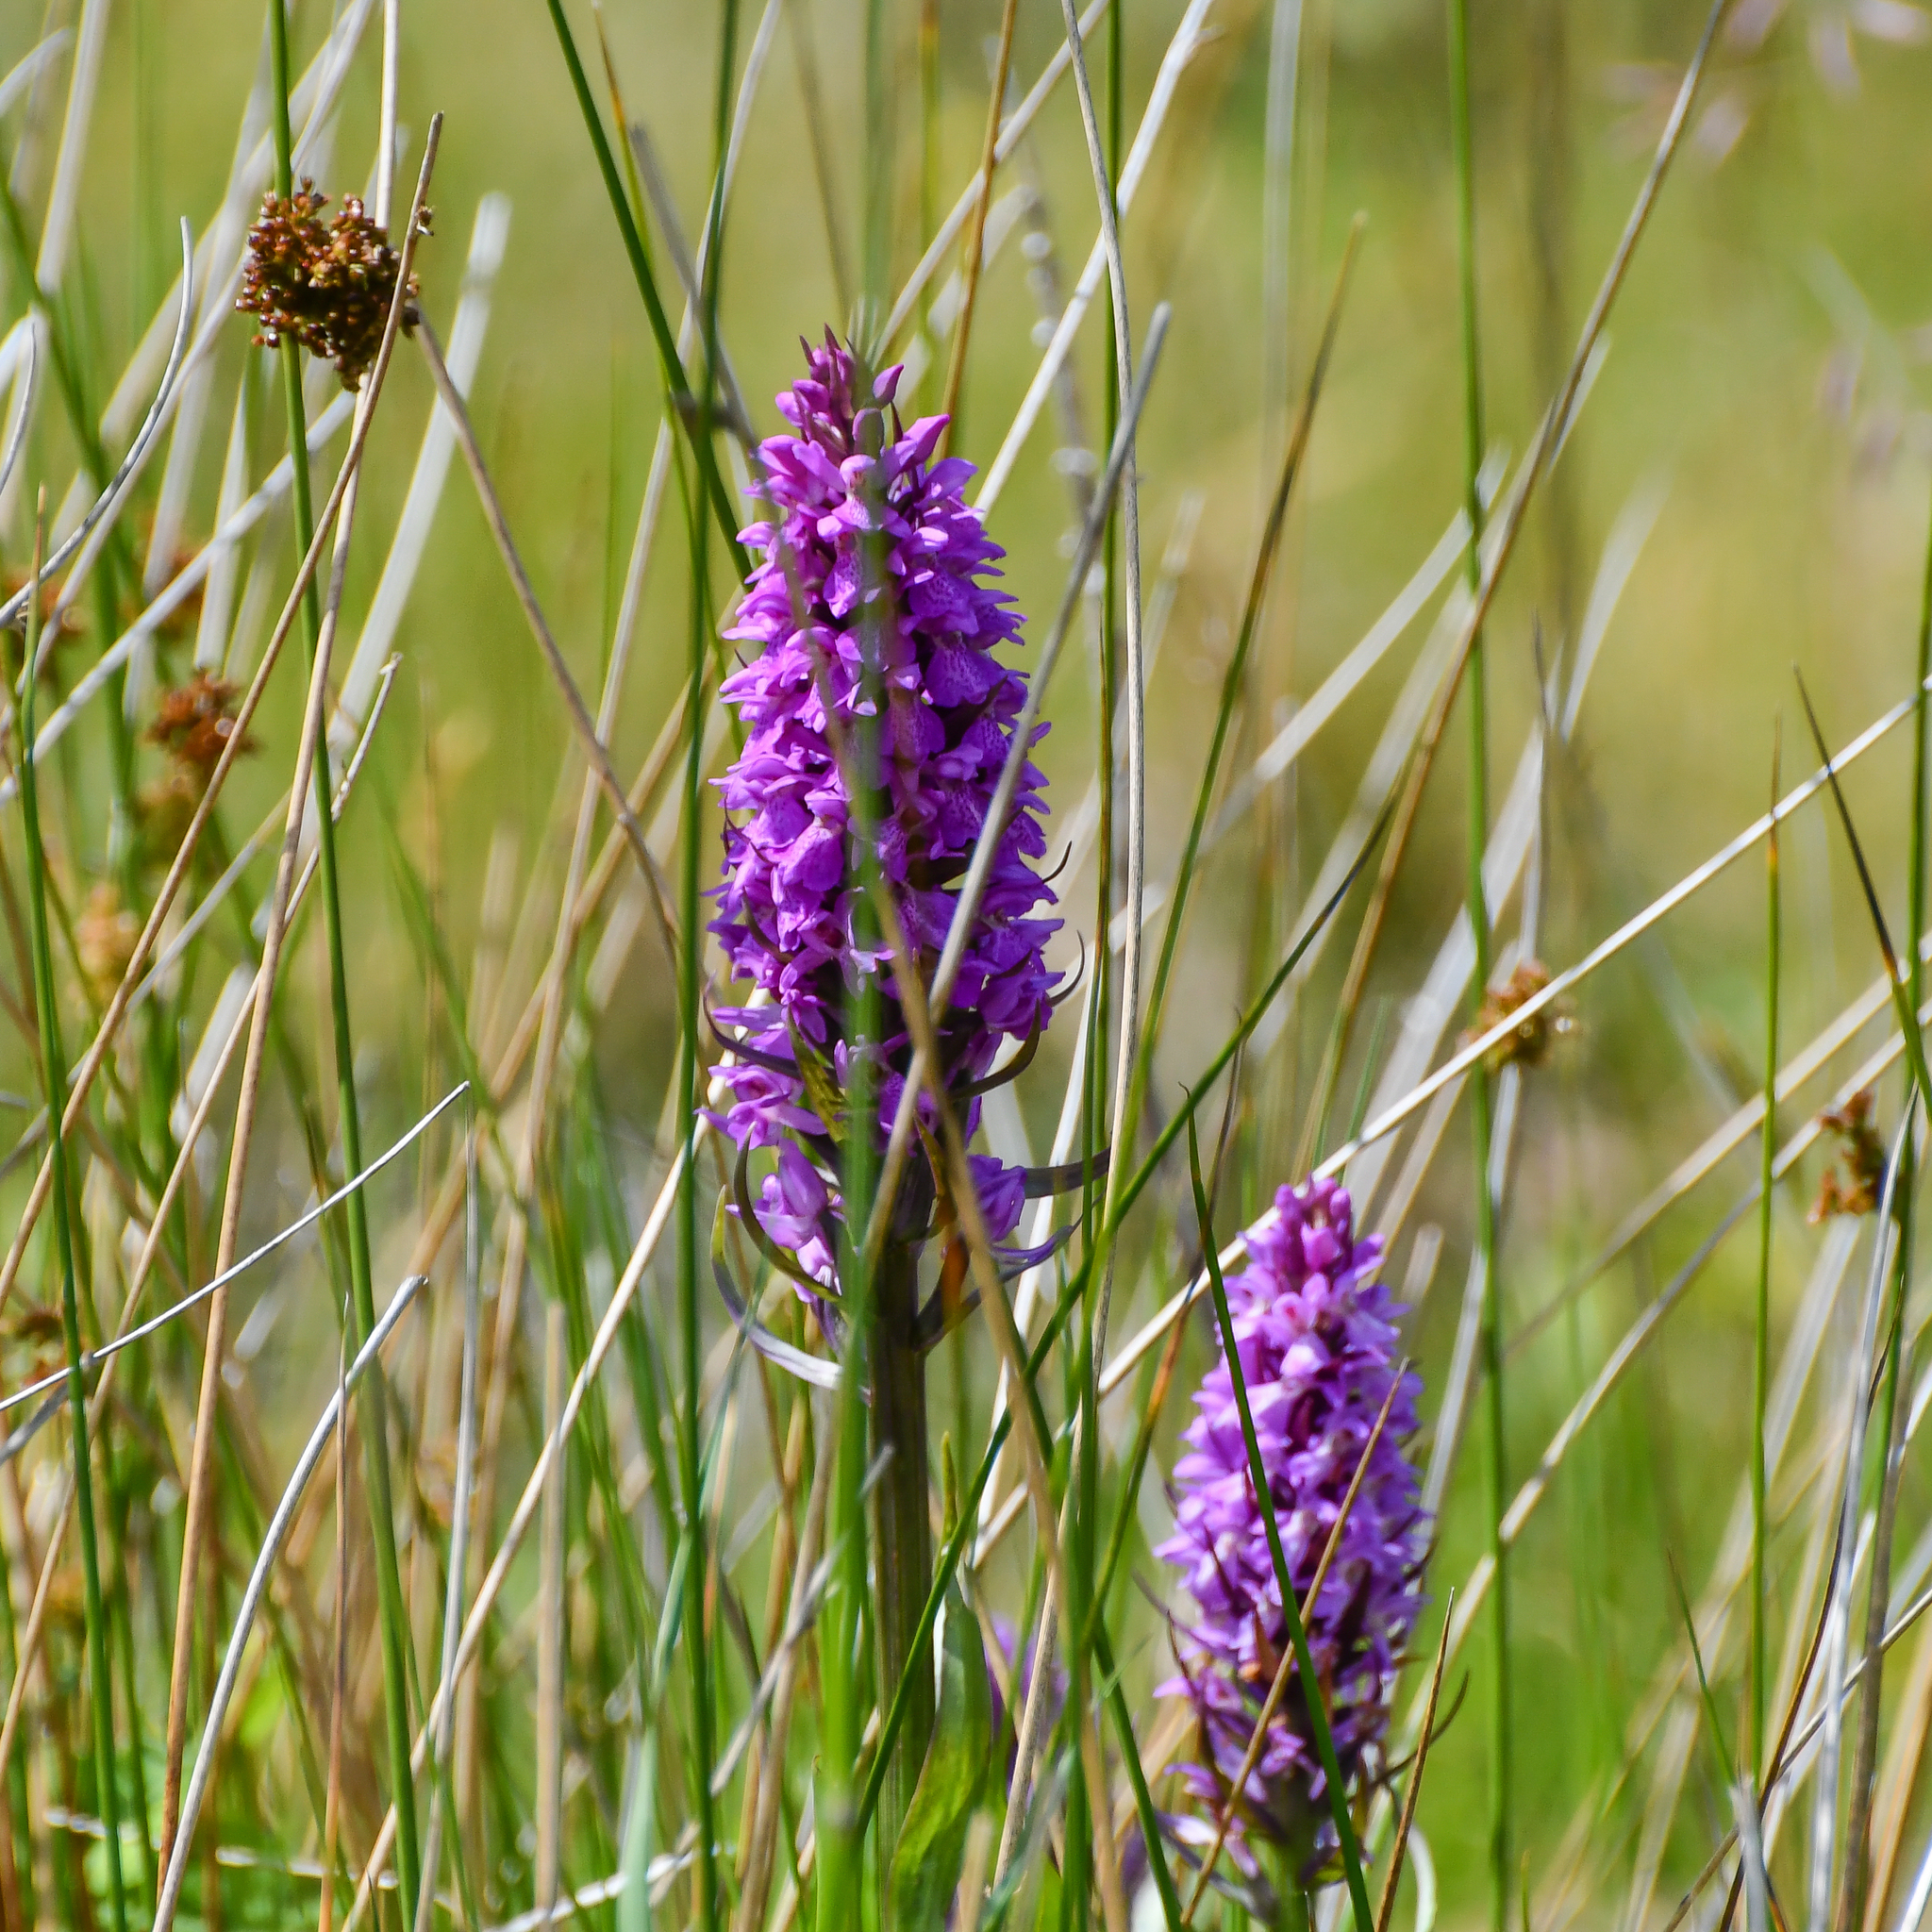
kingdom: Plantae
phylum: Tracheophyta
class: Liliopsida
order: Asparagales
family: Orchidaceae
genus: Dactylorhiza
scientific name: Dactylorhiza majalis
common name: Marsh orchid
